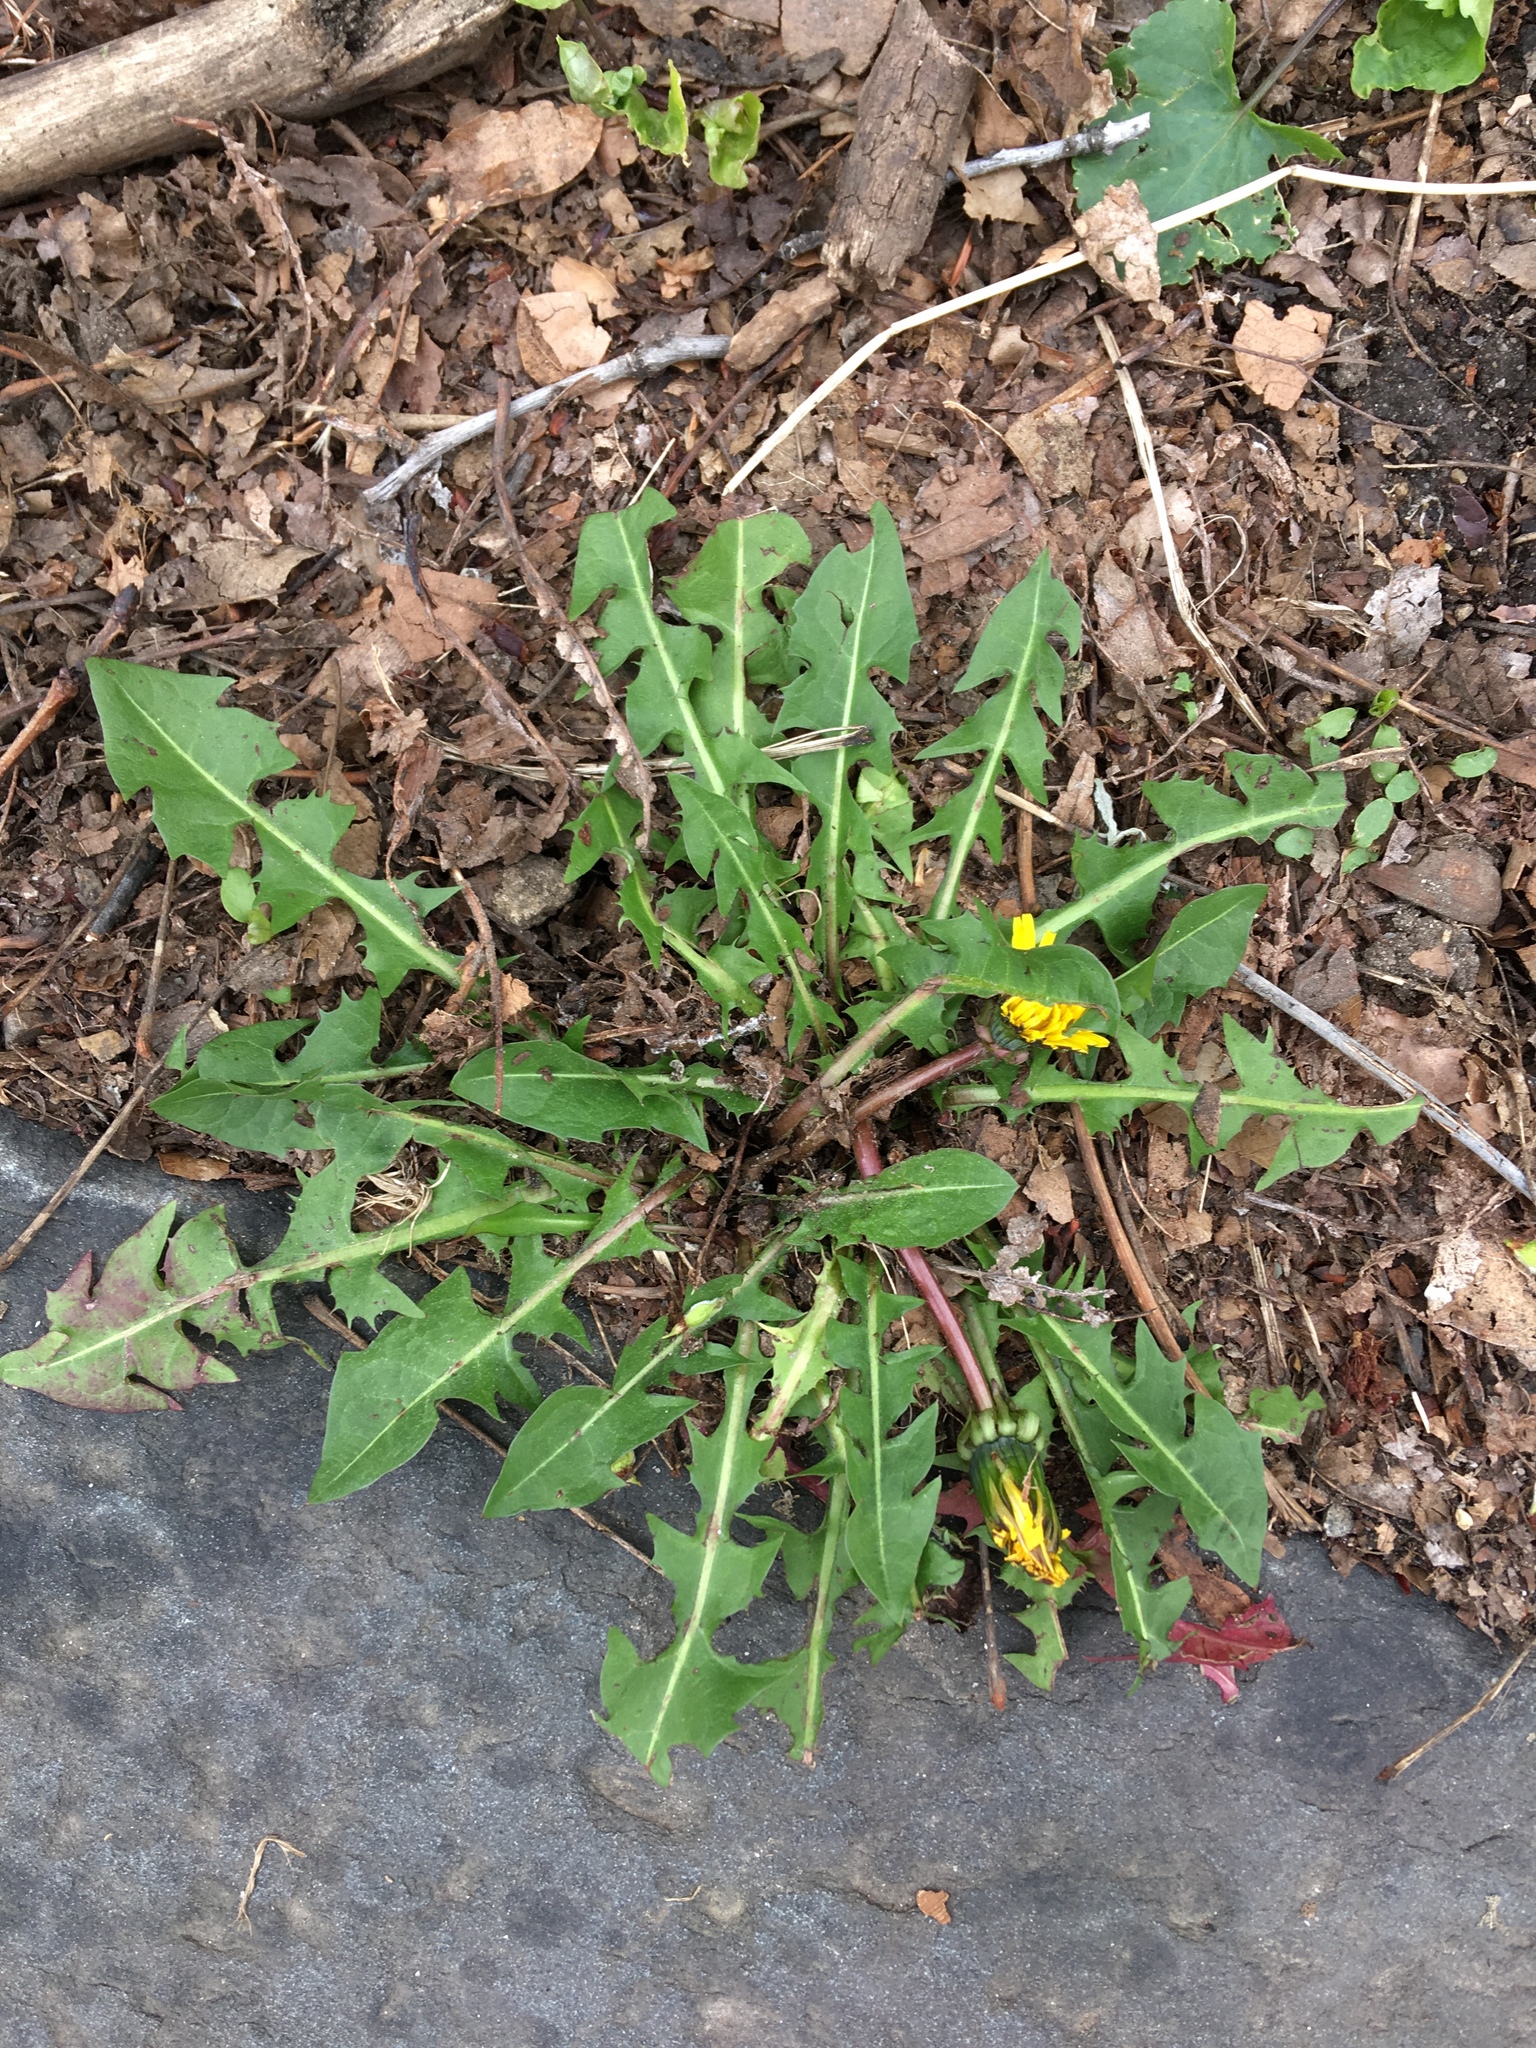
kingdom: Plantae
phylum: Tracheophyta
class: Magnoliopsida
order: Asterales
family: Asteraceae
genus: Taraxacum
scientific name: Taraxacum officinale
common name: Common dandelion
